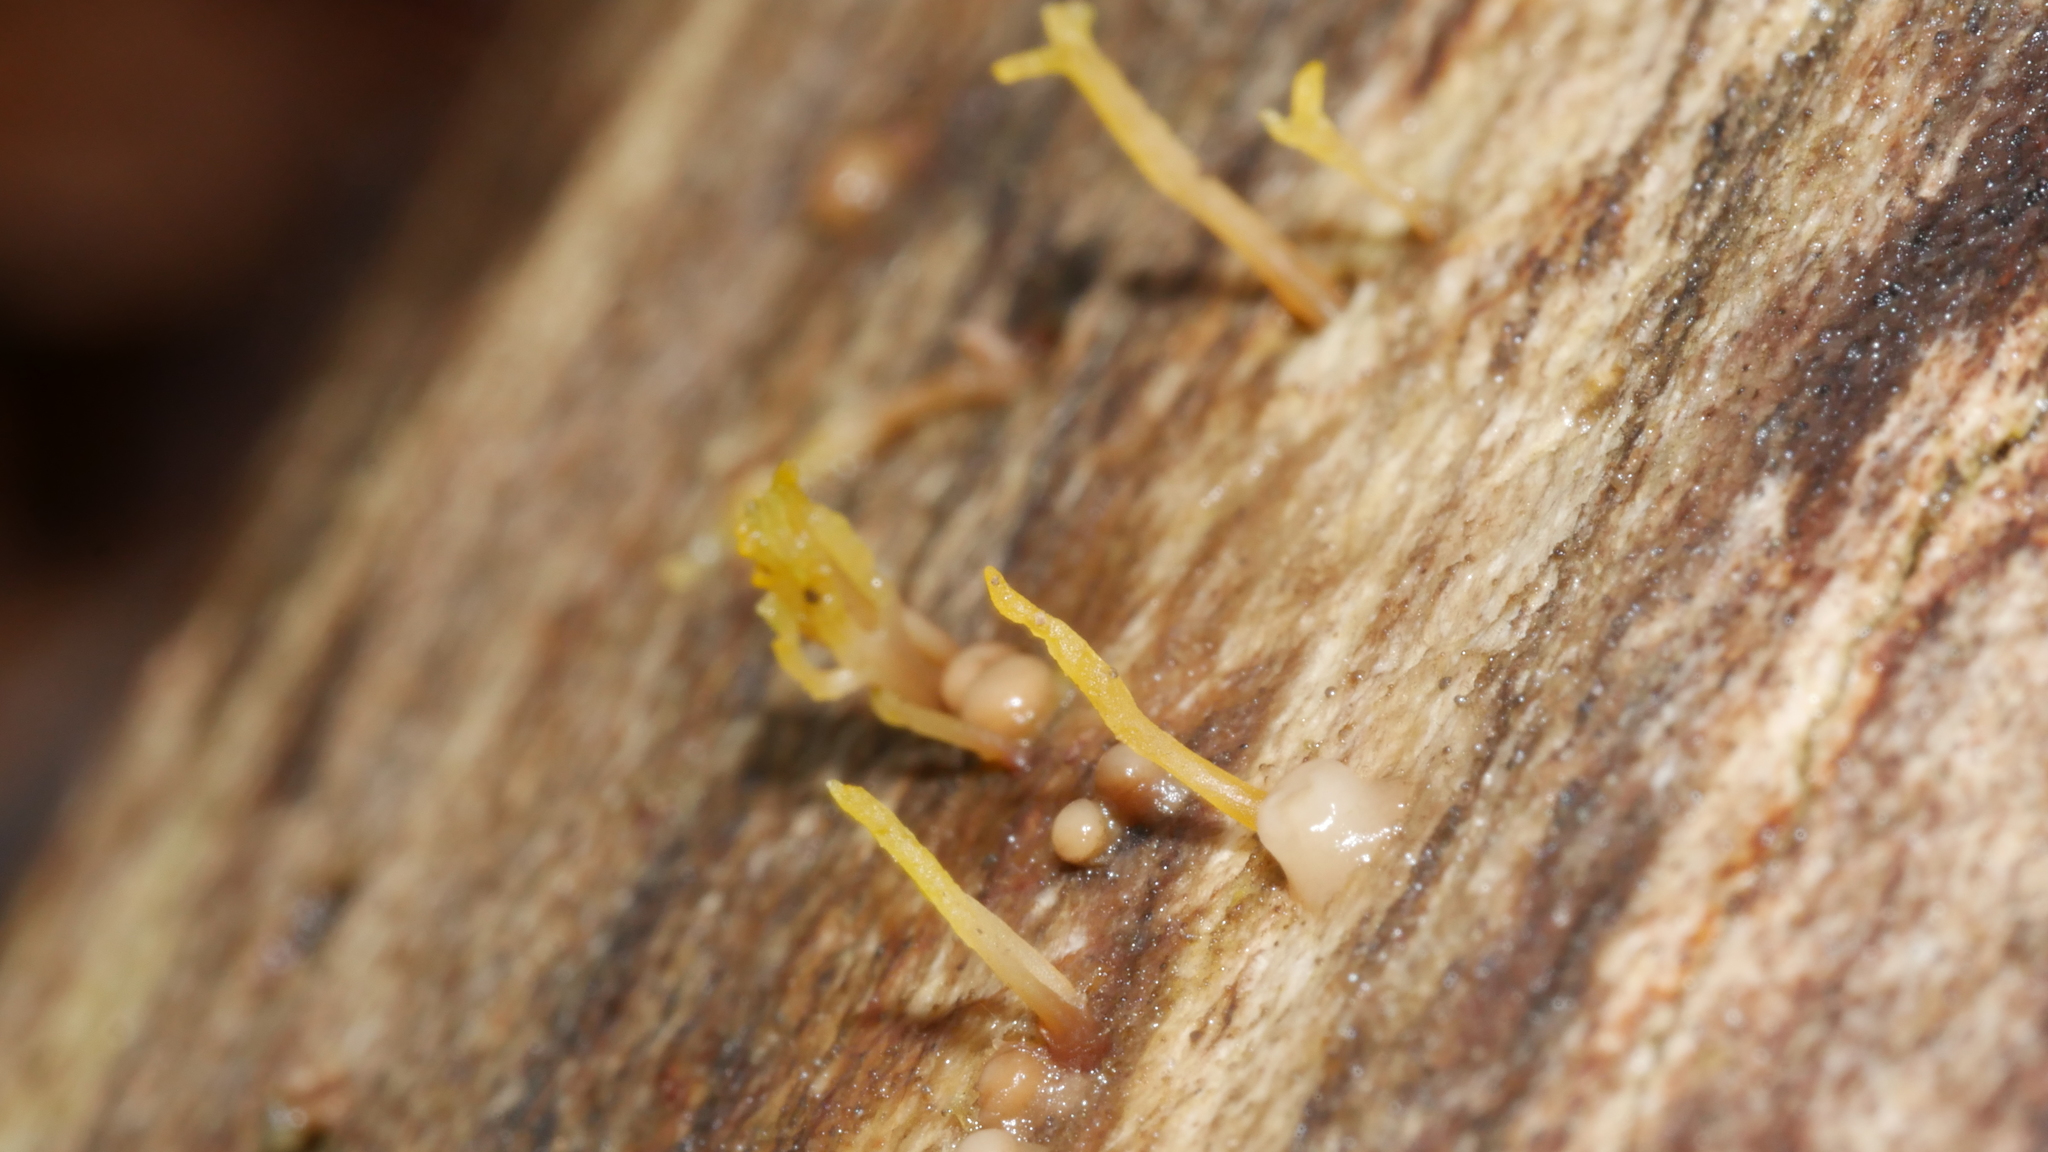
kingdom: Fungi
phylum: Basidiomycota
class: Dacrymycetes
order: Dacrymycetales
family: Dacrymycetaceae
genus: Calocera
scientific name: Calocera cornea
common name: Small stagshorn
